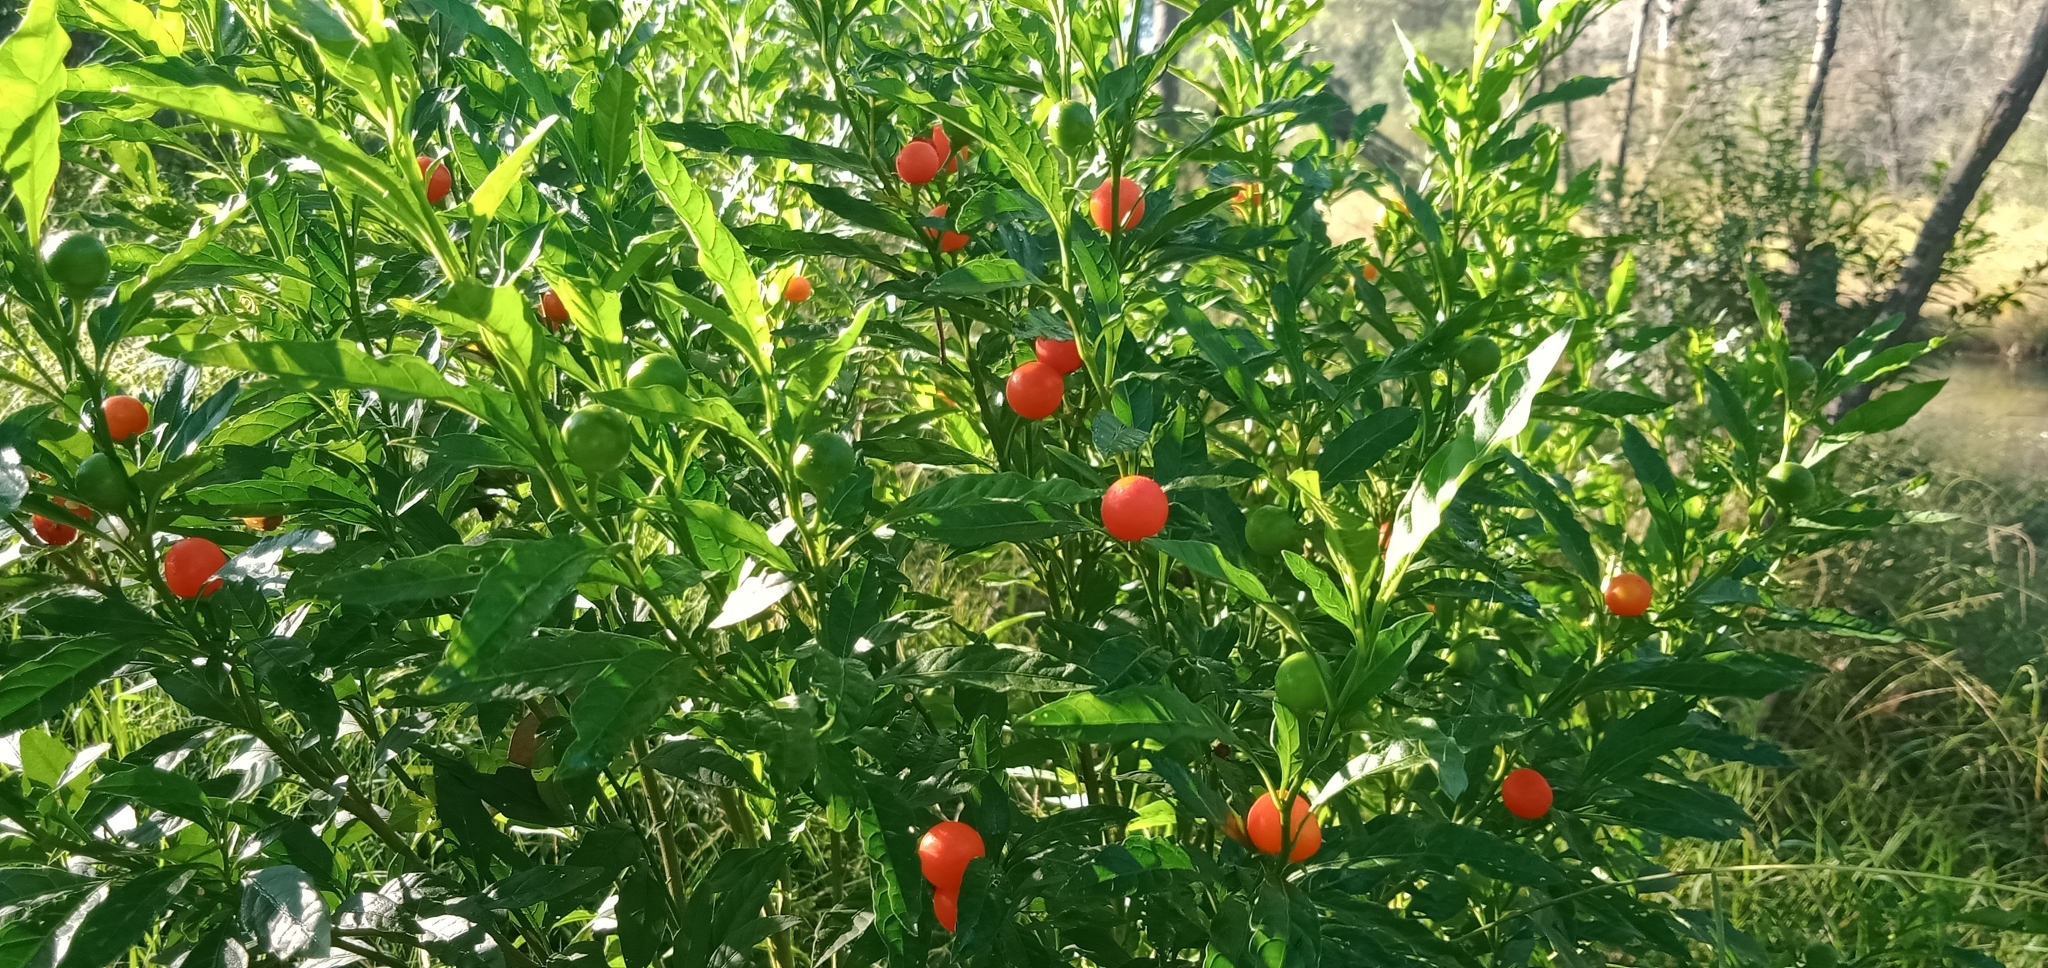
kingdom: Plantae
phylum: Tracheophyta
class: Magnoliopsida
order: Solanales
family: Solanaceae
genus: Solanum
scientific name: Solanum pseudocapsicum
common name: Jerusalem cherry
